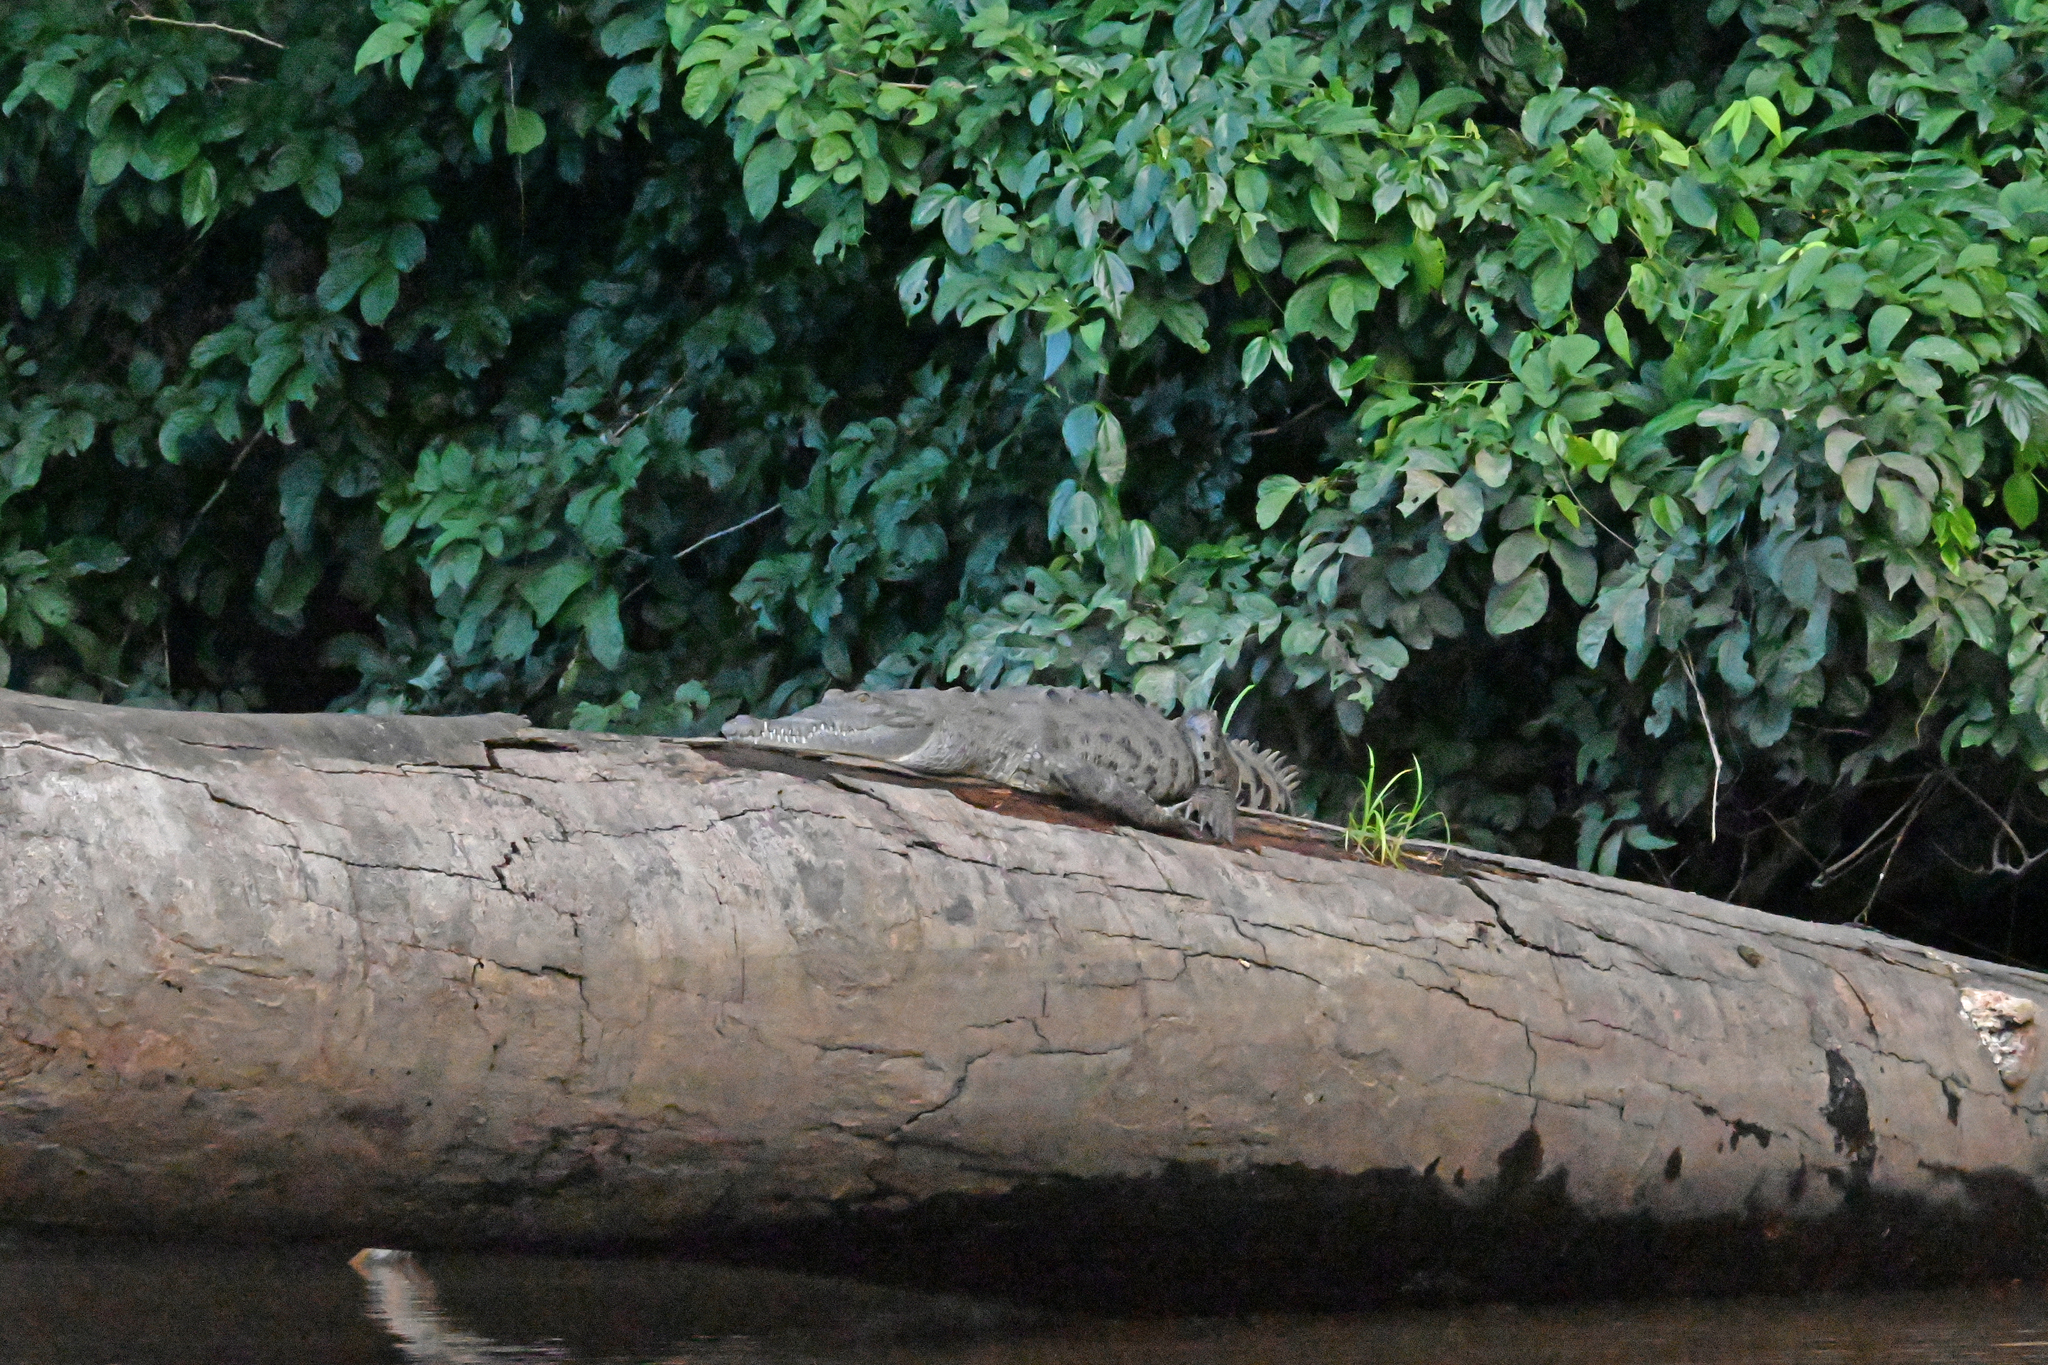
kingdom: Animalia
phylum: Chordata
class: Crocodylia
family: Crocodylidae
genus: Crocodylus
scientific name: Crocodylus acutus
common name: American crocodile
